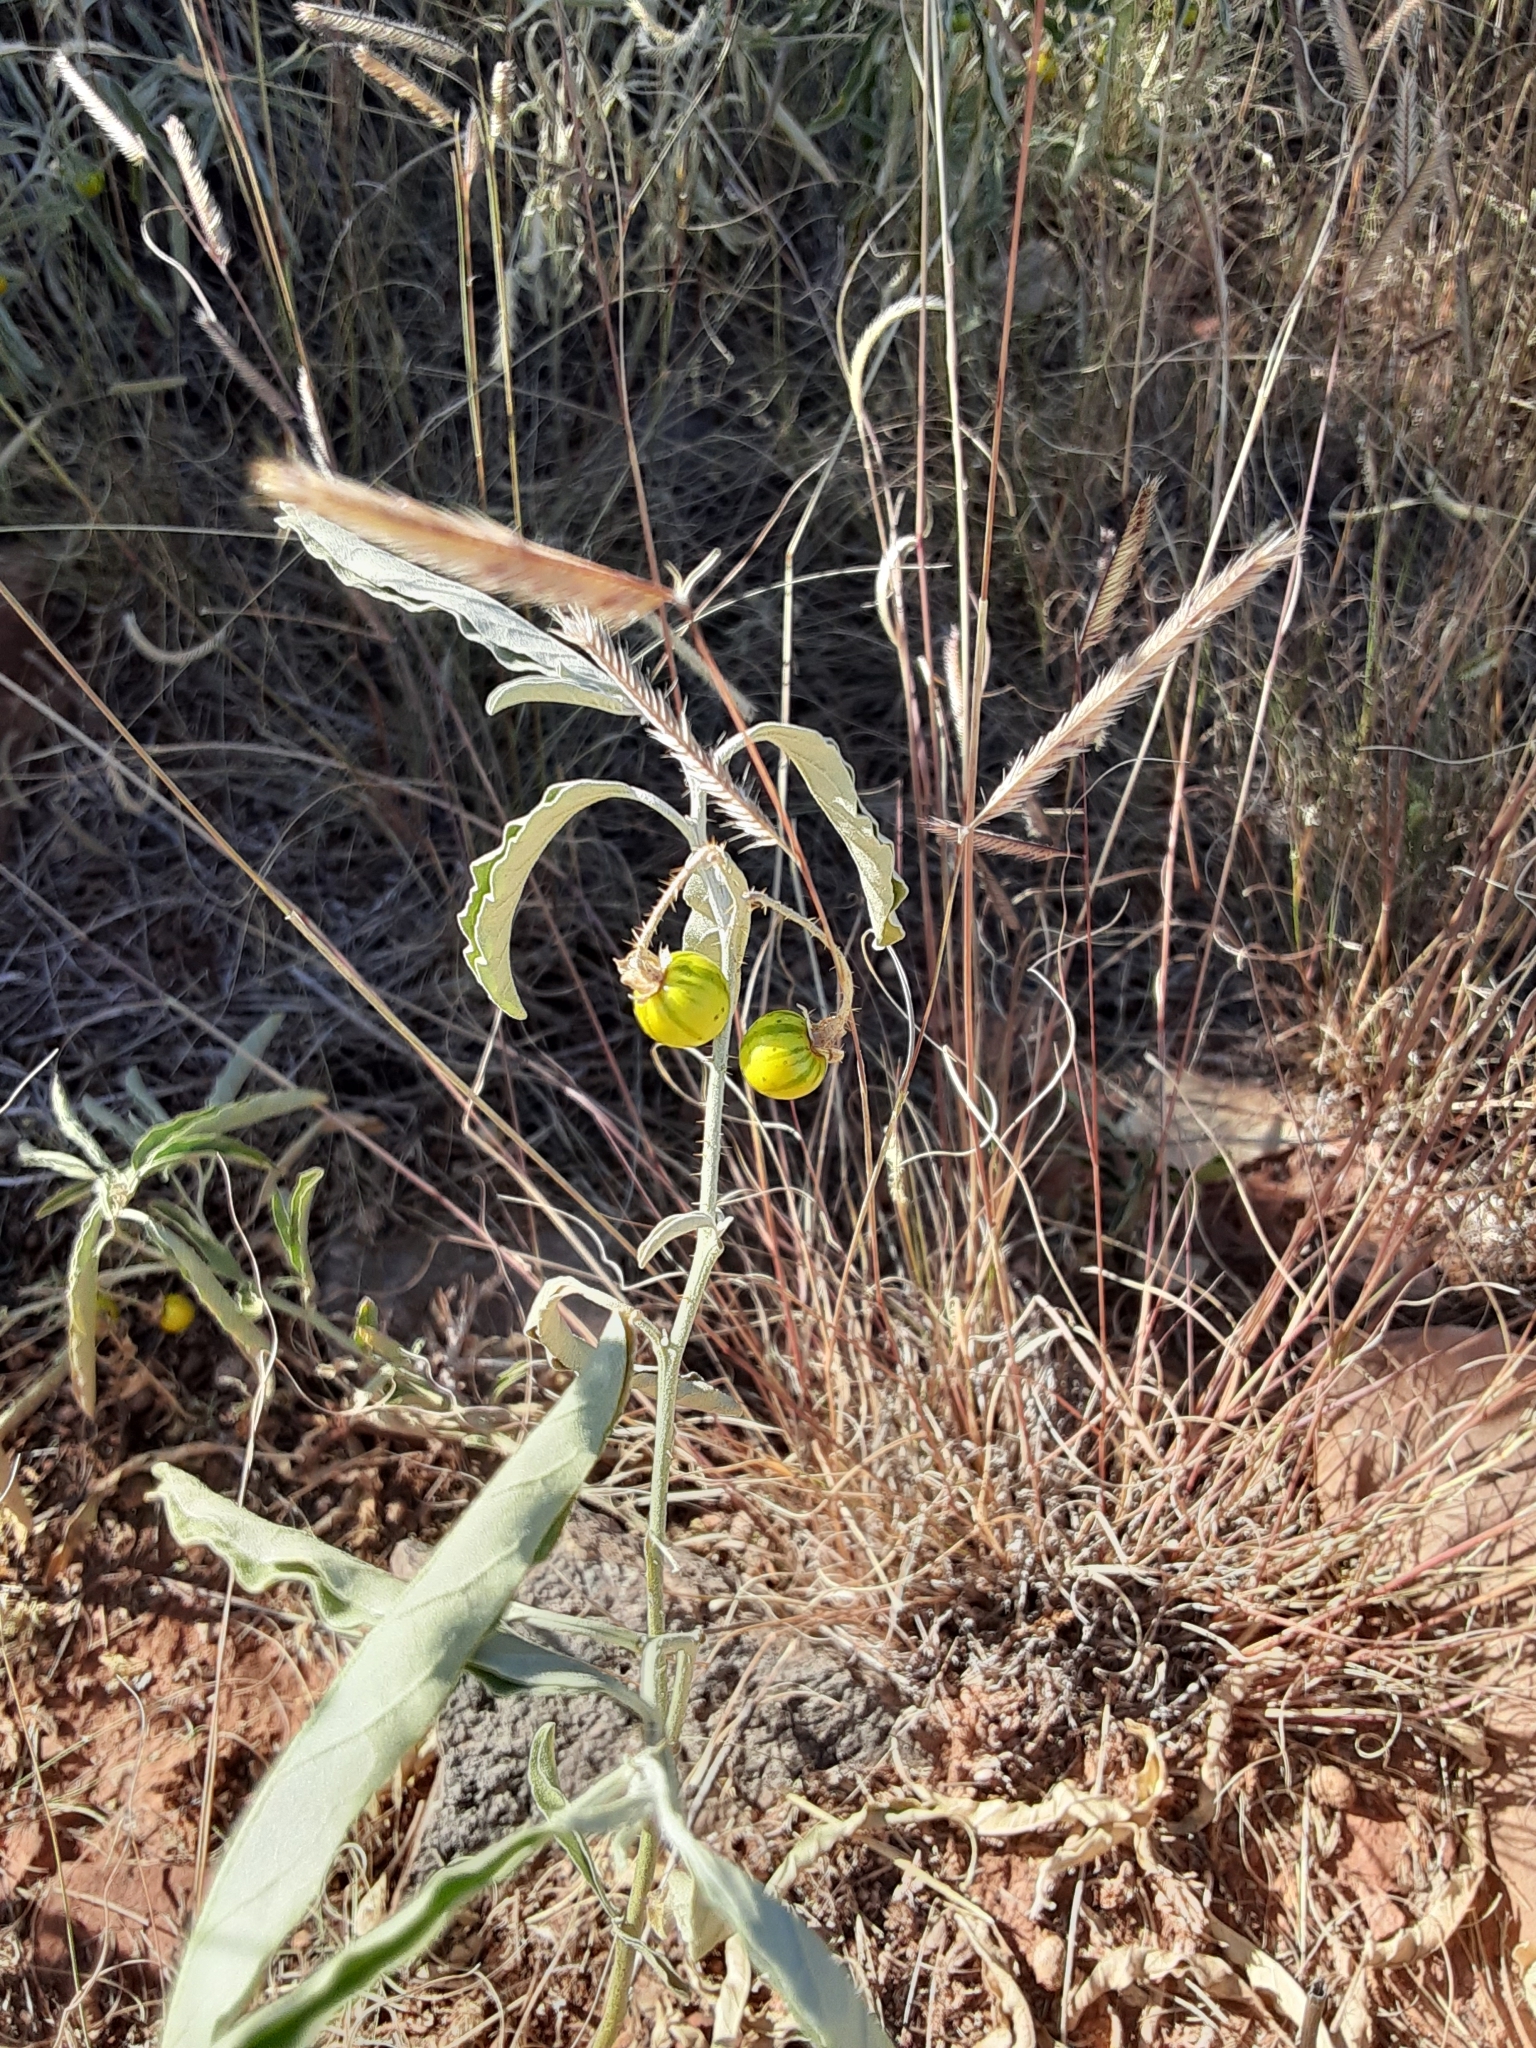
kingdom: Plantae
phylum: Tracheophyta
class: Magnoliopsida
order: Solanales
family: Solanaceae
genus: Solanum
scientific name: Solanum elaeagnifolium
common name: Silverleaf nightshade
